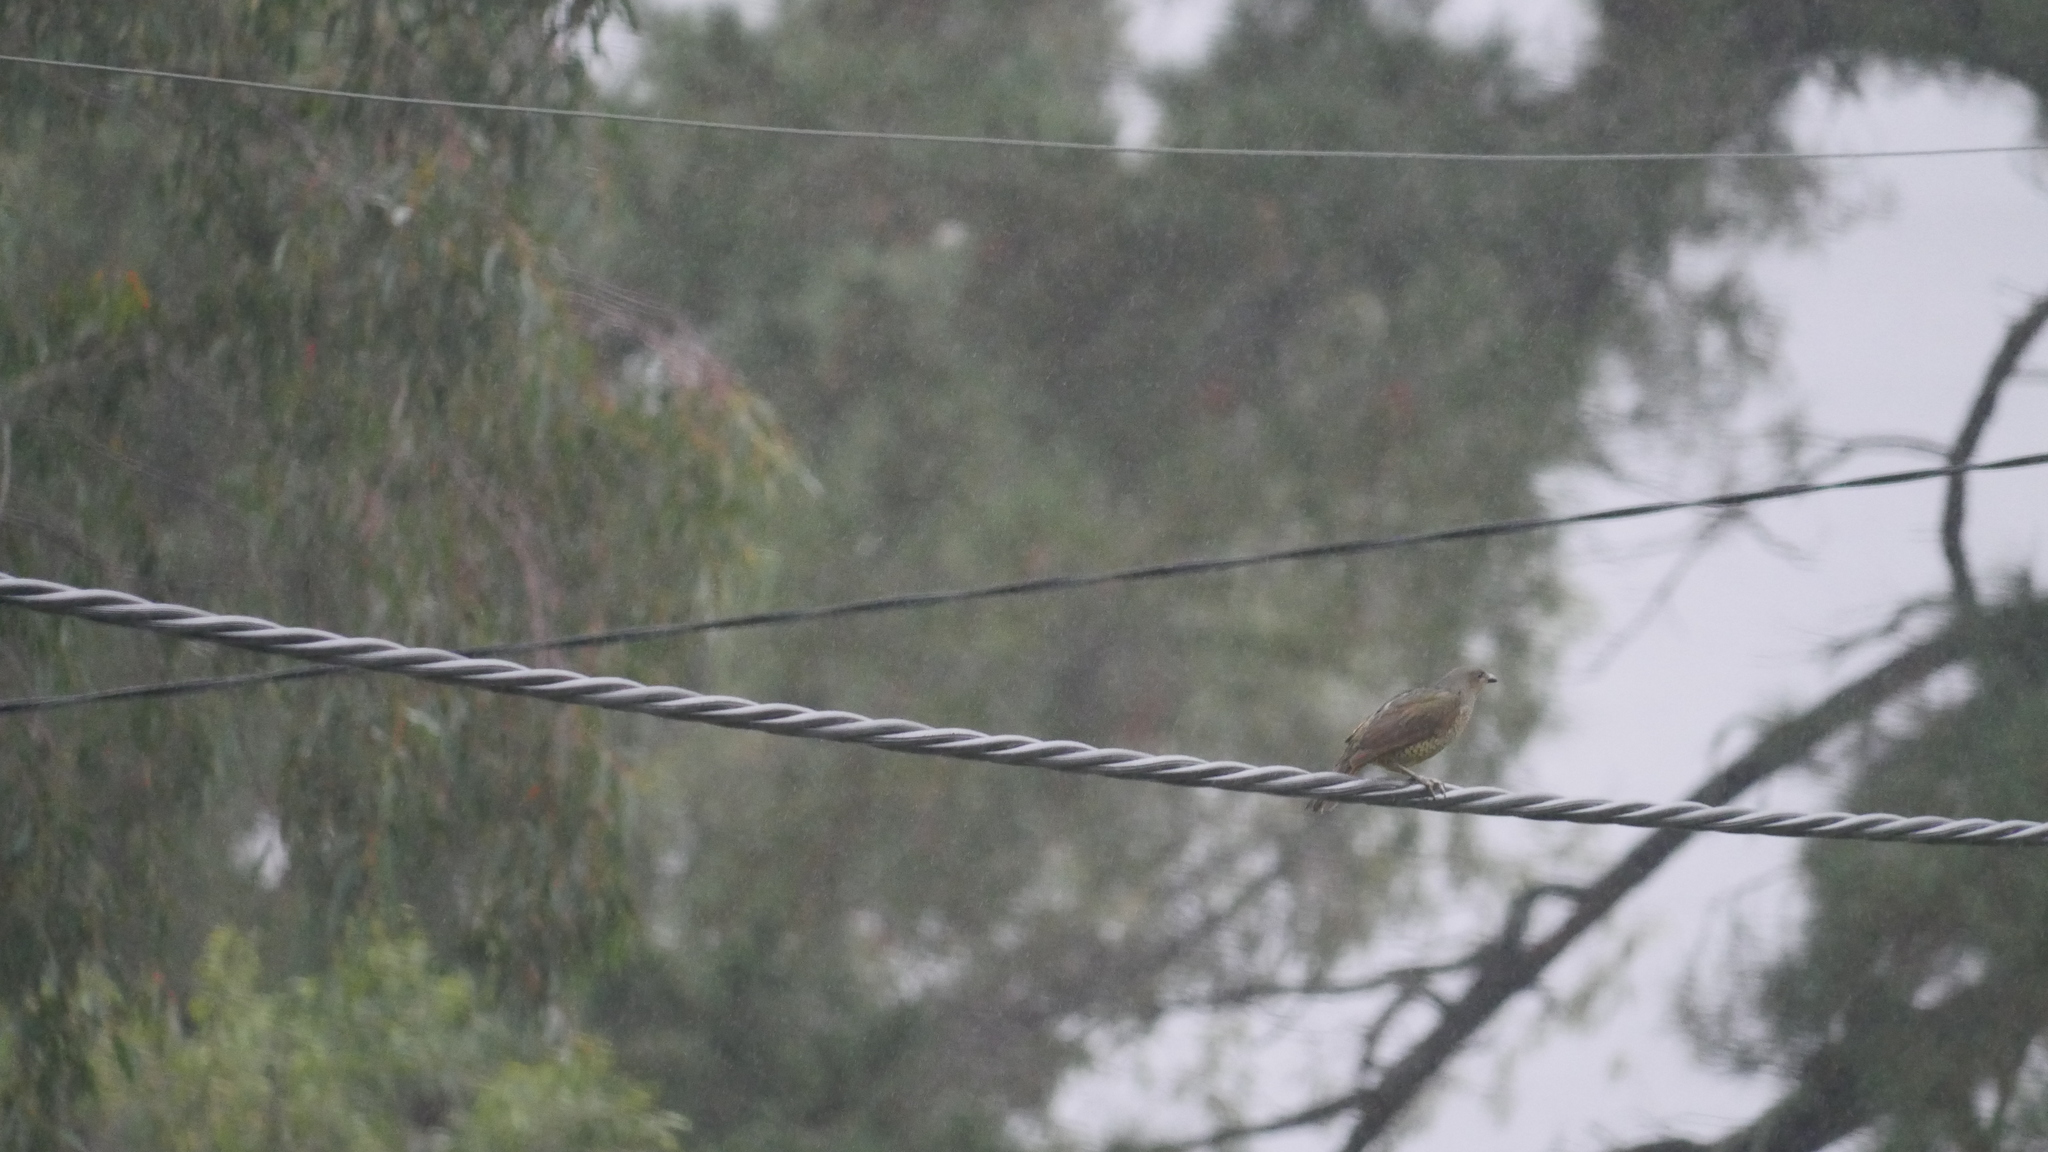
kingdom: Animalia
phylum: Chordata
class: Aves
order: Passeriformes
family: Ptilonorhynchidae
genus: Ptilonorhynchus
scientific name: Ptilonorhynchus violaceus
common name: Satin bowerbird
